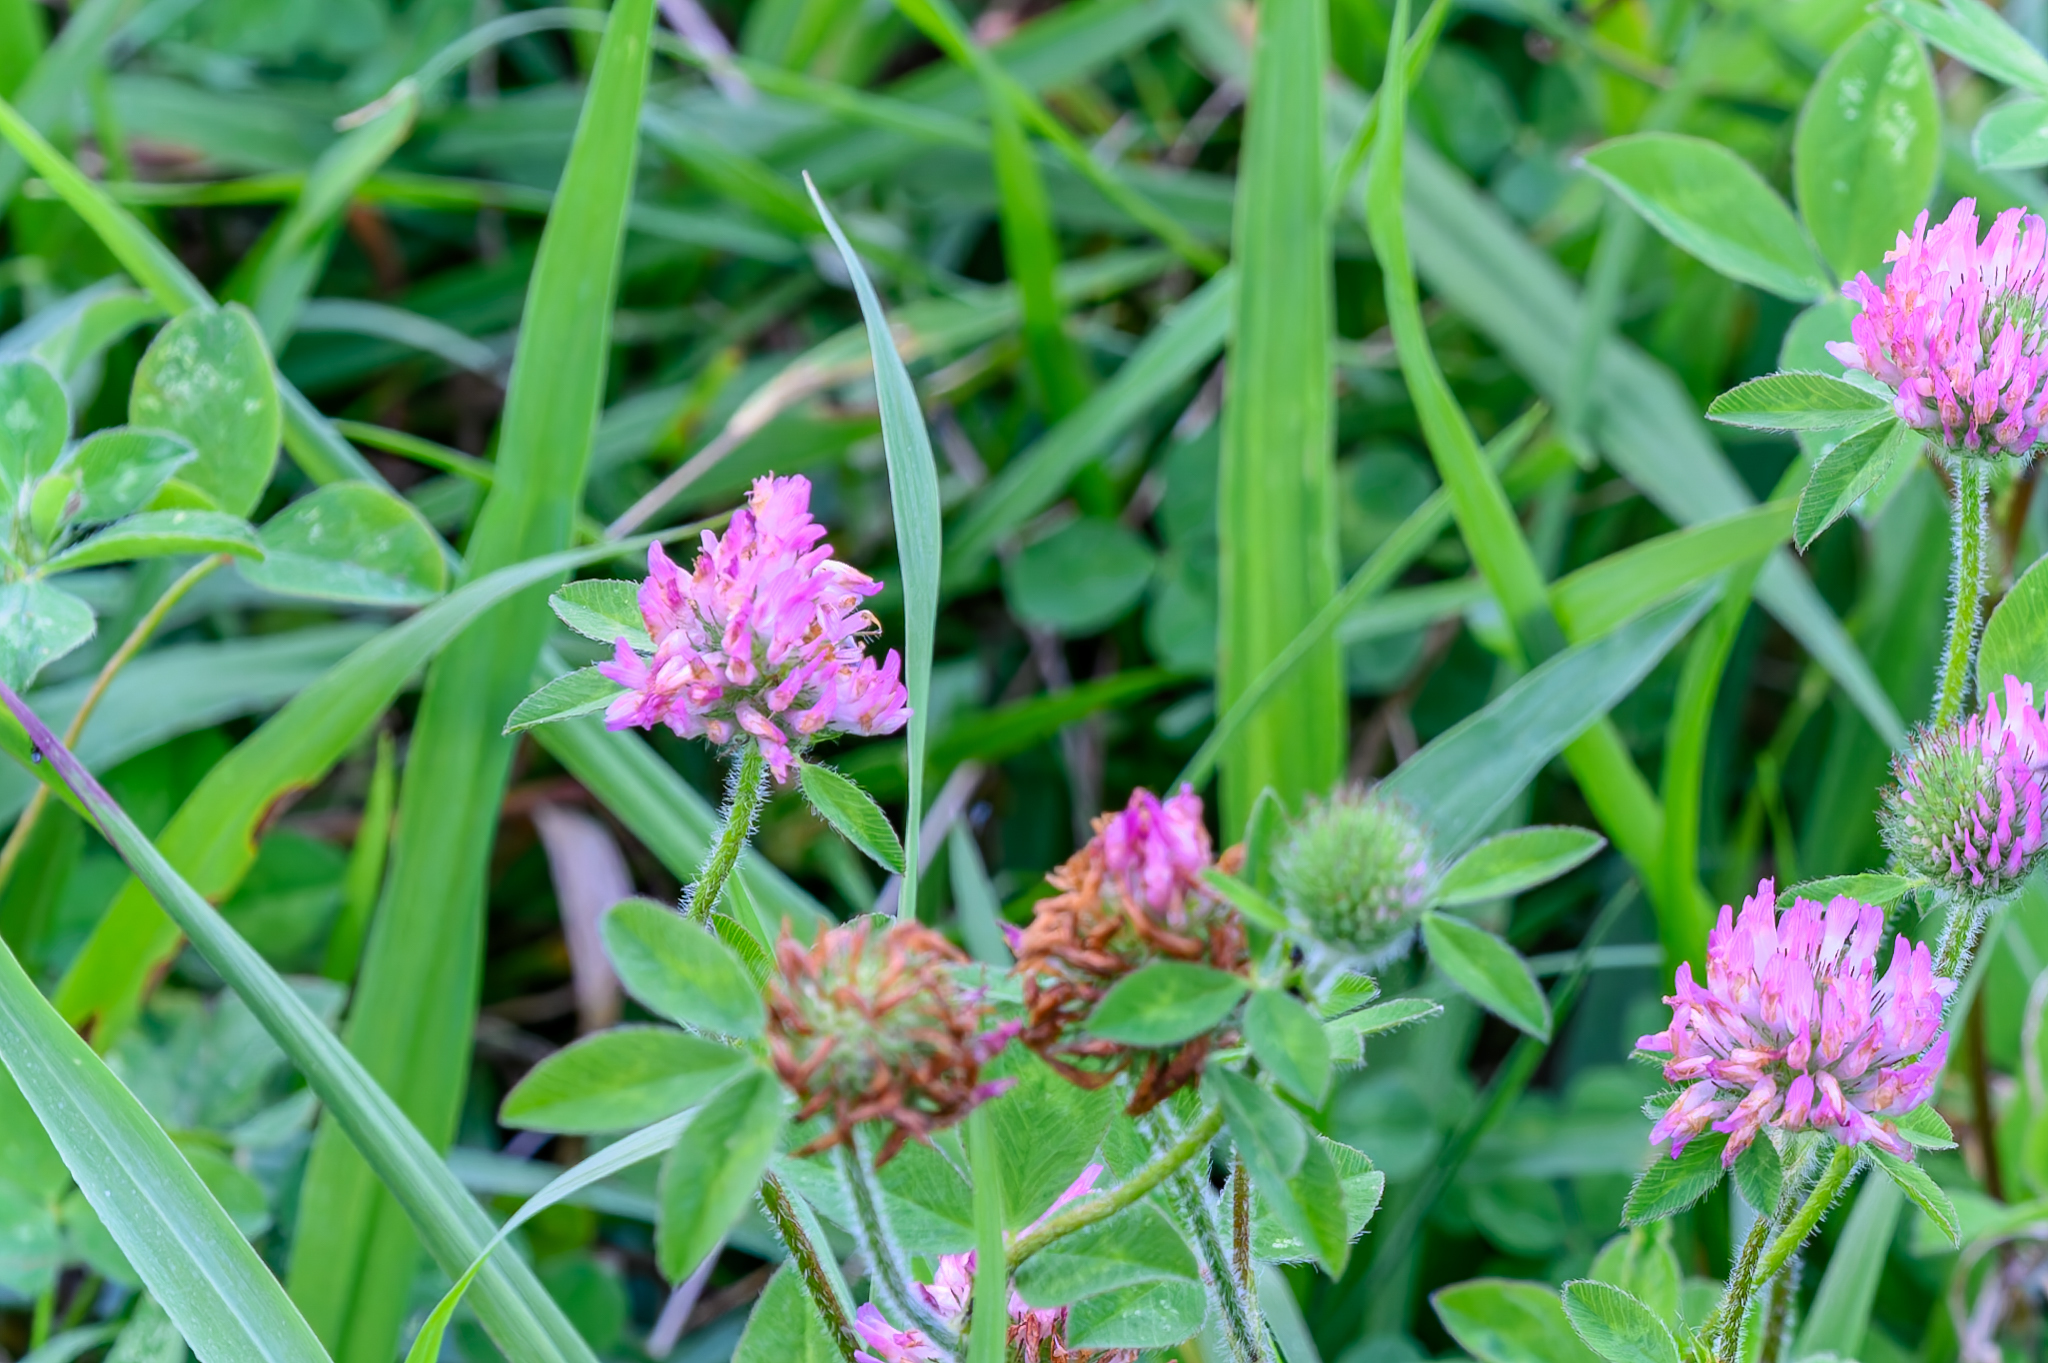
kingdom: Plantae
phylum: Tracheophyta
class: Magnoliopsida
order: Fabales
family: Fabaceae
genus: Trifolium
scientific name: Trifolium pratense
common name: Red clover
